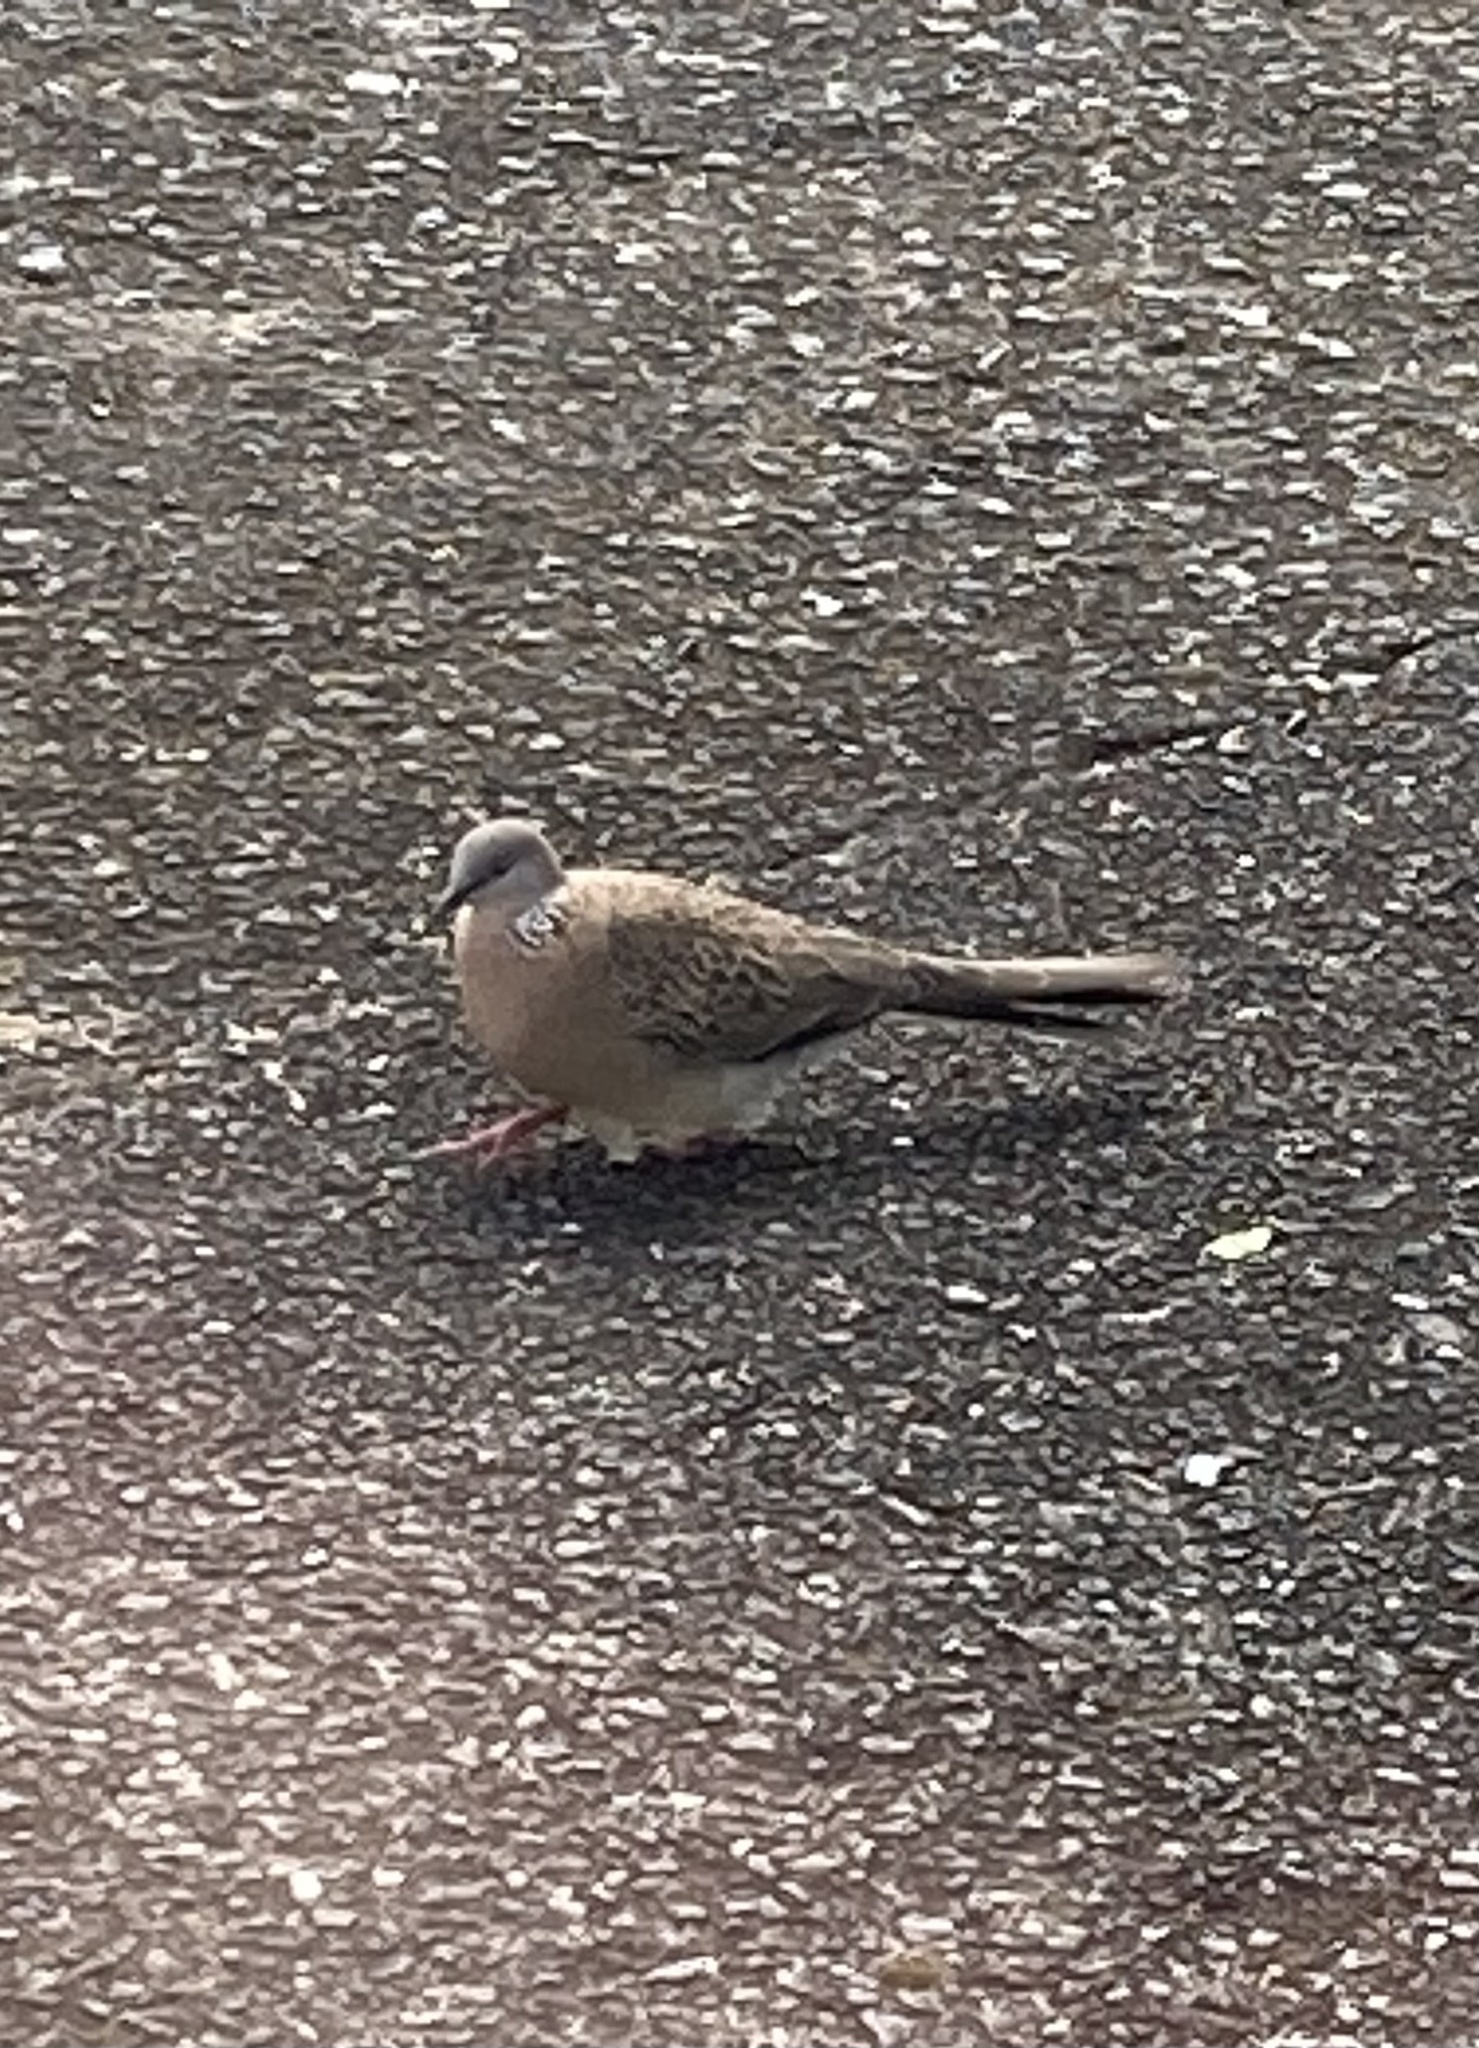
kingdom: Animalia
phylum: Chordata
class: Aves
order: Columbiformes
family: Columbidae
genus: Spilopelia
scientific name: Spilopelia chinensis
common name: Spotted dove
